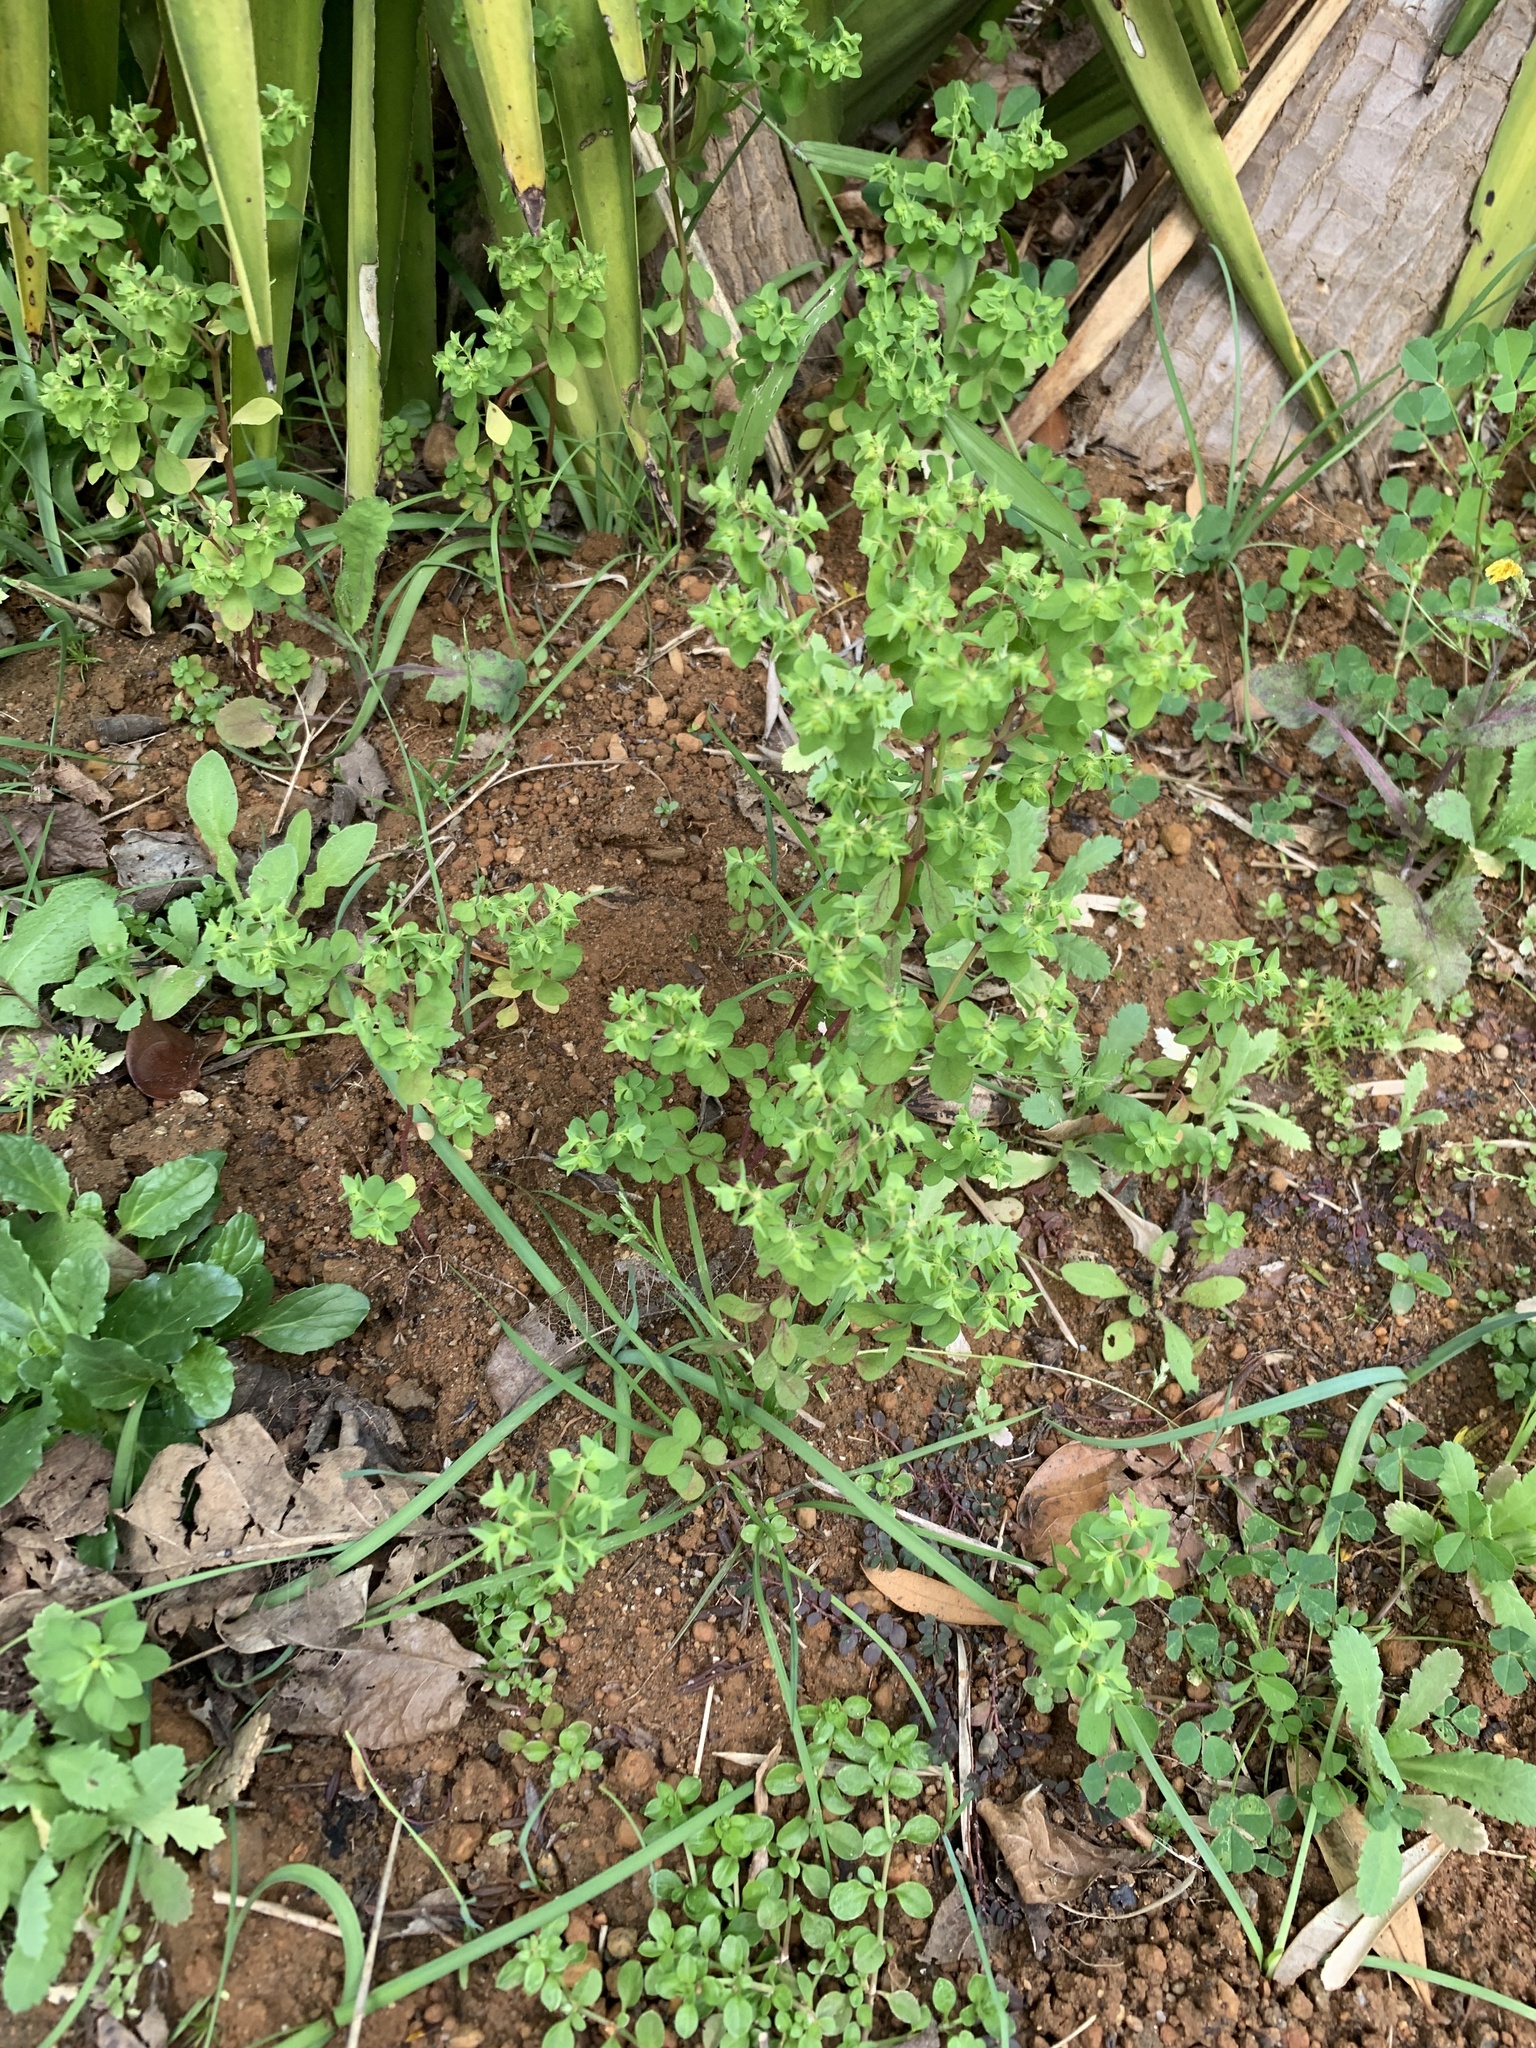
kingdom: Plantae
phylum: Tracheophyta
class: Magnoliopsida
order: Malpighiales
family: Euphorbiaceae
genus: Euphorbia
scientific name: Euphorbia peplus
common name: Petty spurge
